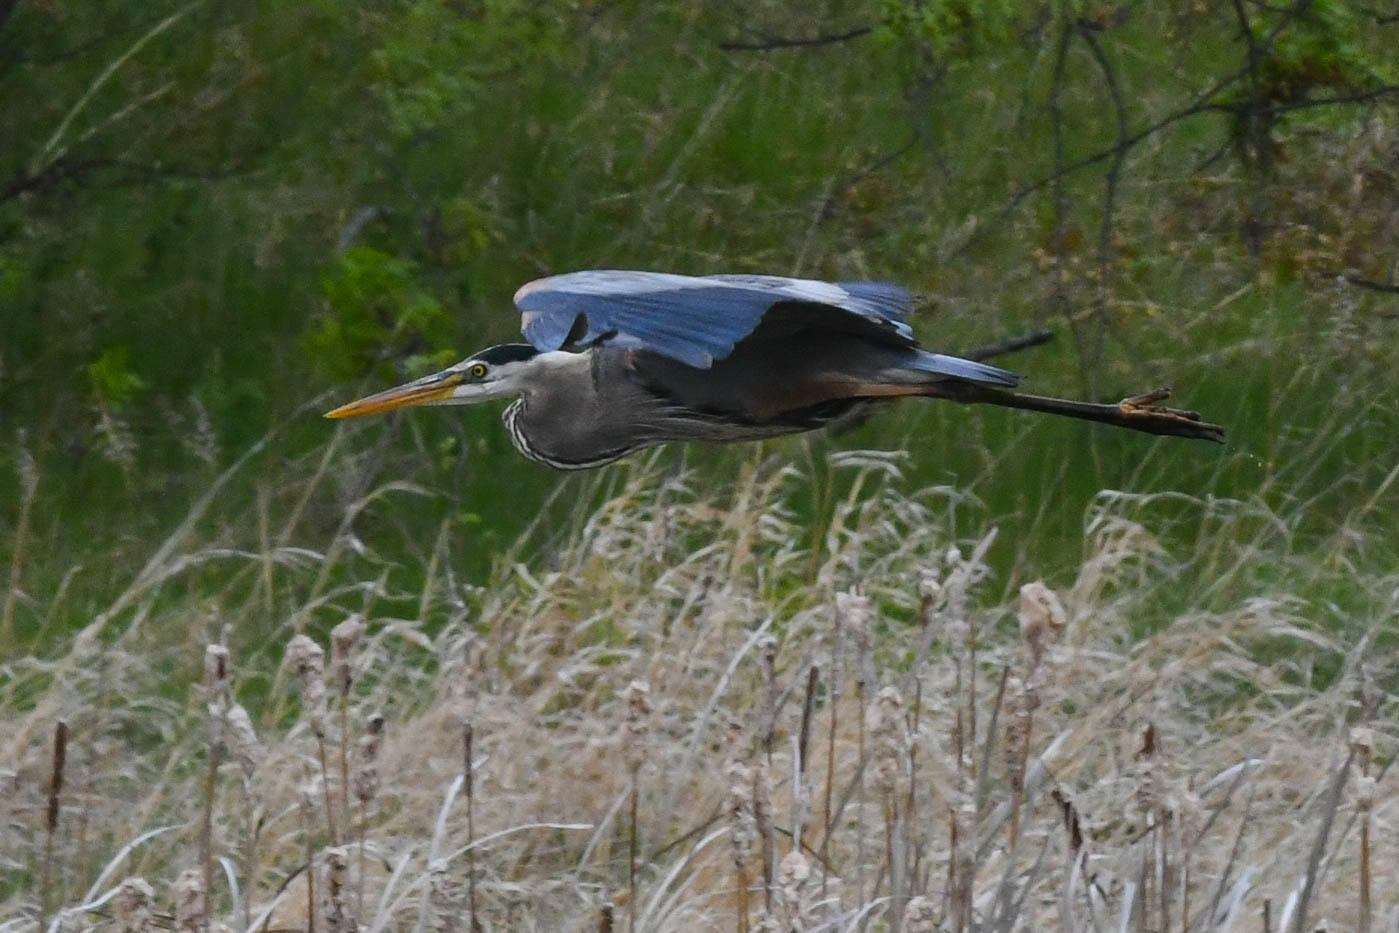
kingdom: Animalia
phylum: Chordata
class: Aves
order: Pelecaniformes
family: Ardeidae
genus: Ardea
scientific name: Ardea herodias
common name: Great blue heron
